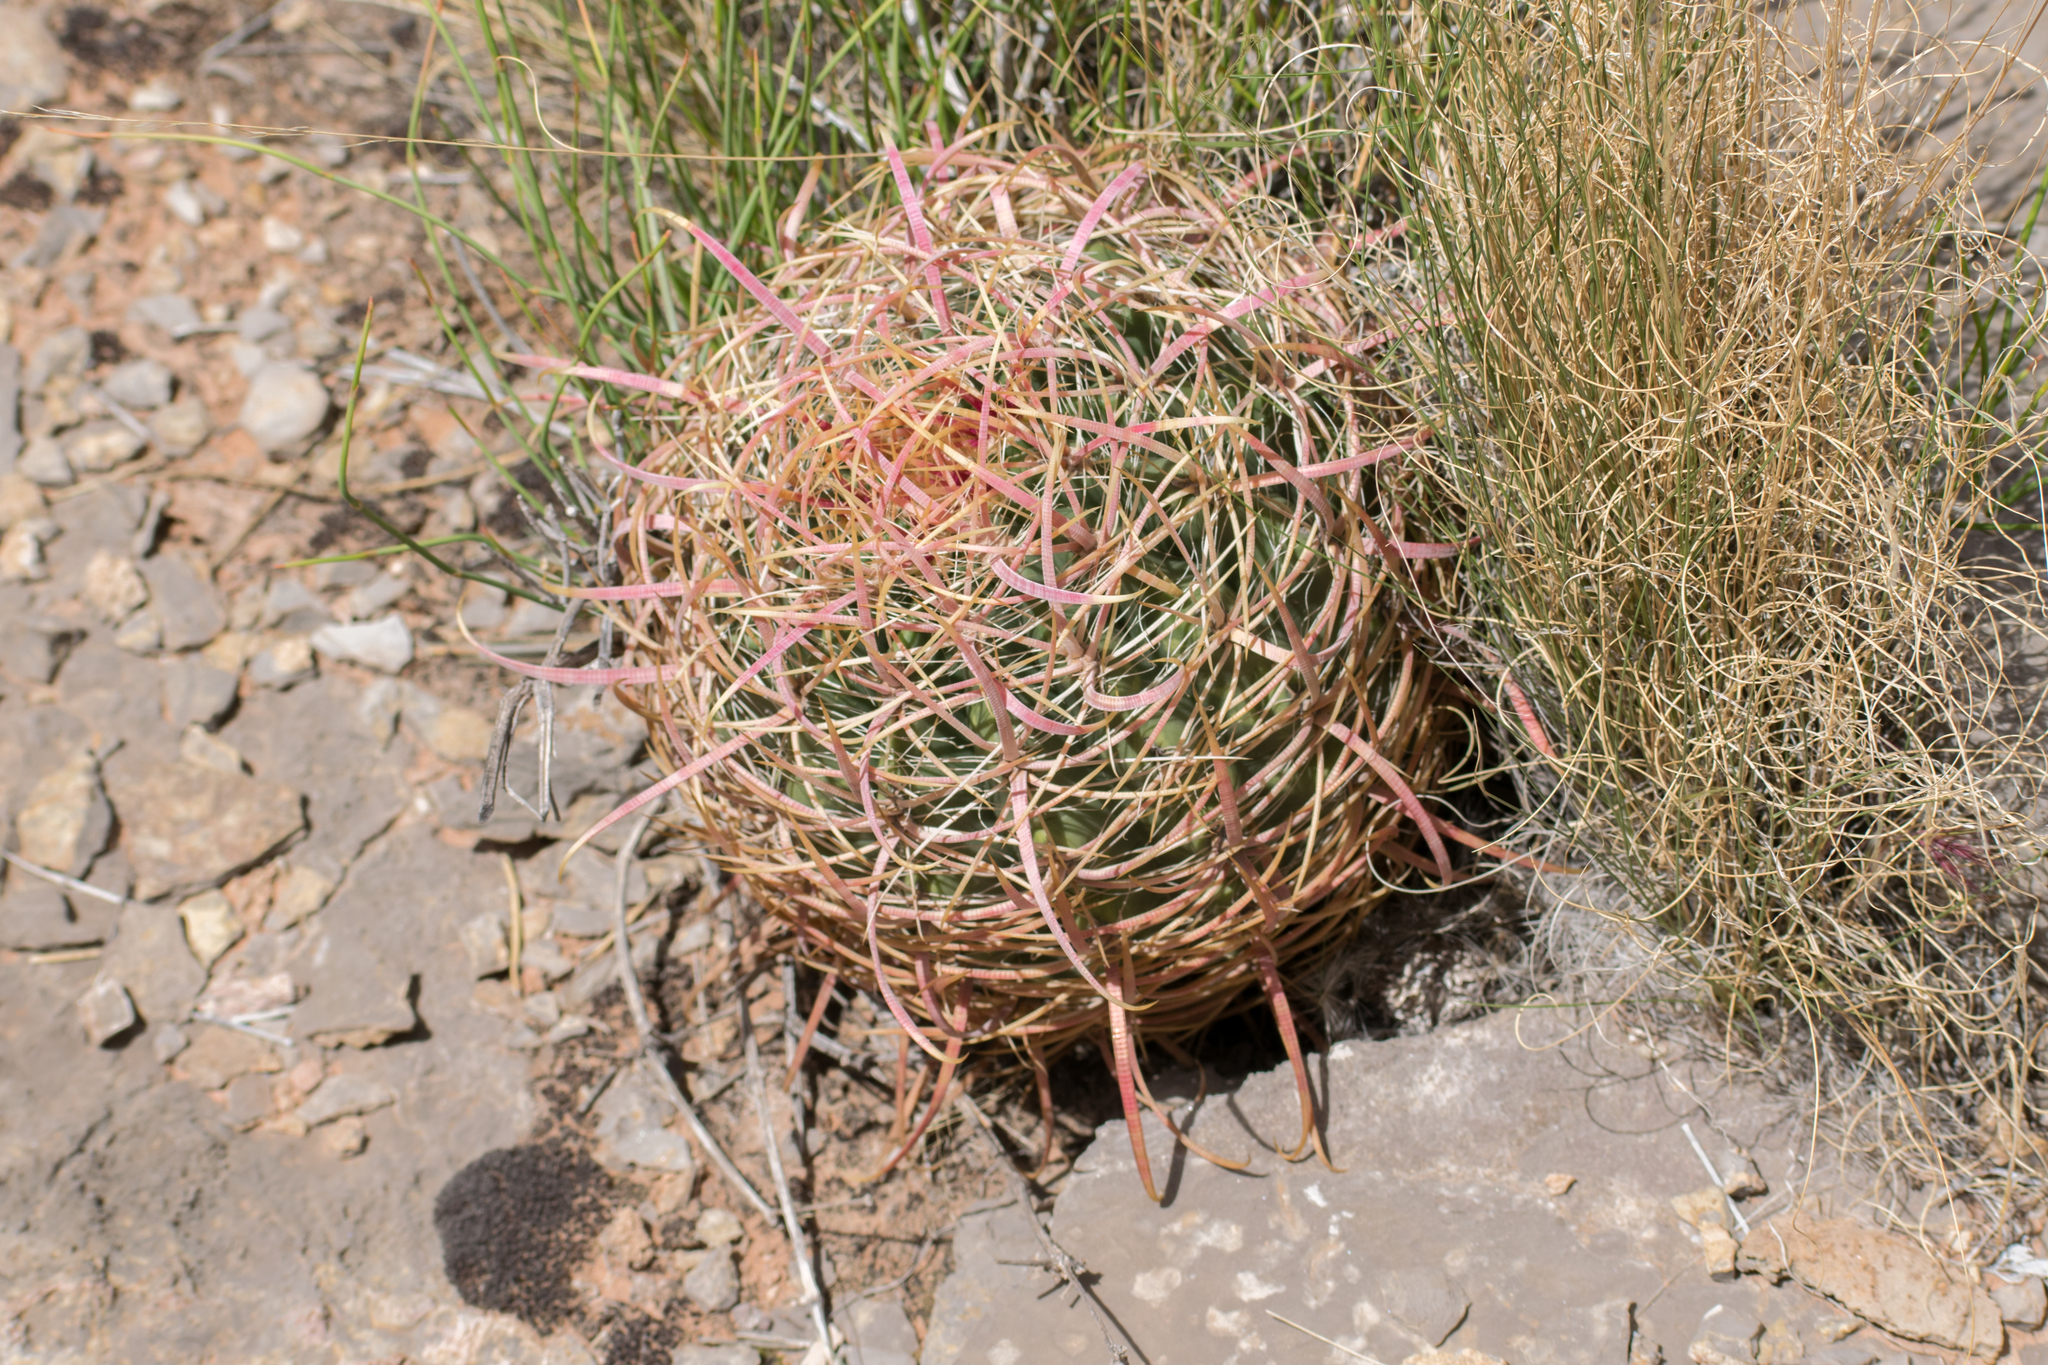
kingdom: Plantae
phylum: Tracheophyta
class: Magnoliopsida
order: Caryophyllales
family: Cactaceae
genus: Ferocactus
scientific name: Ferocactus cylindraceus
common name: California barrel cactus
